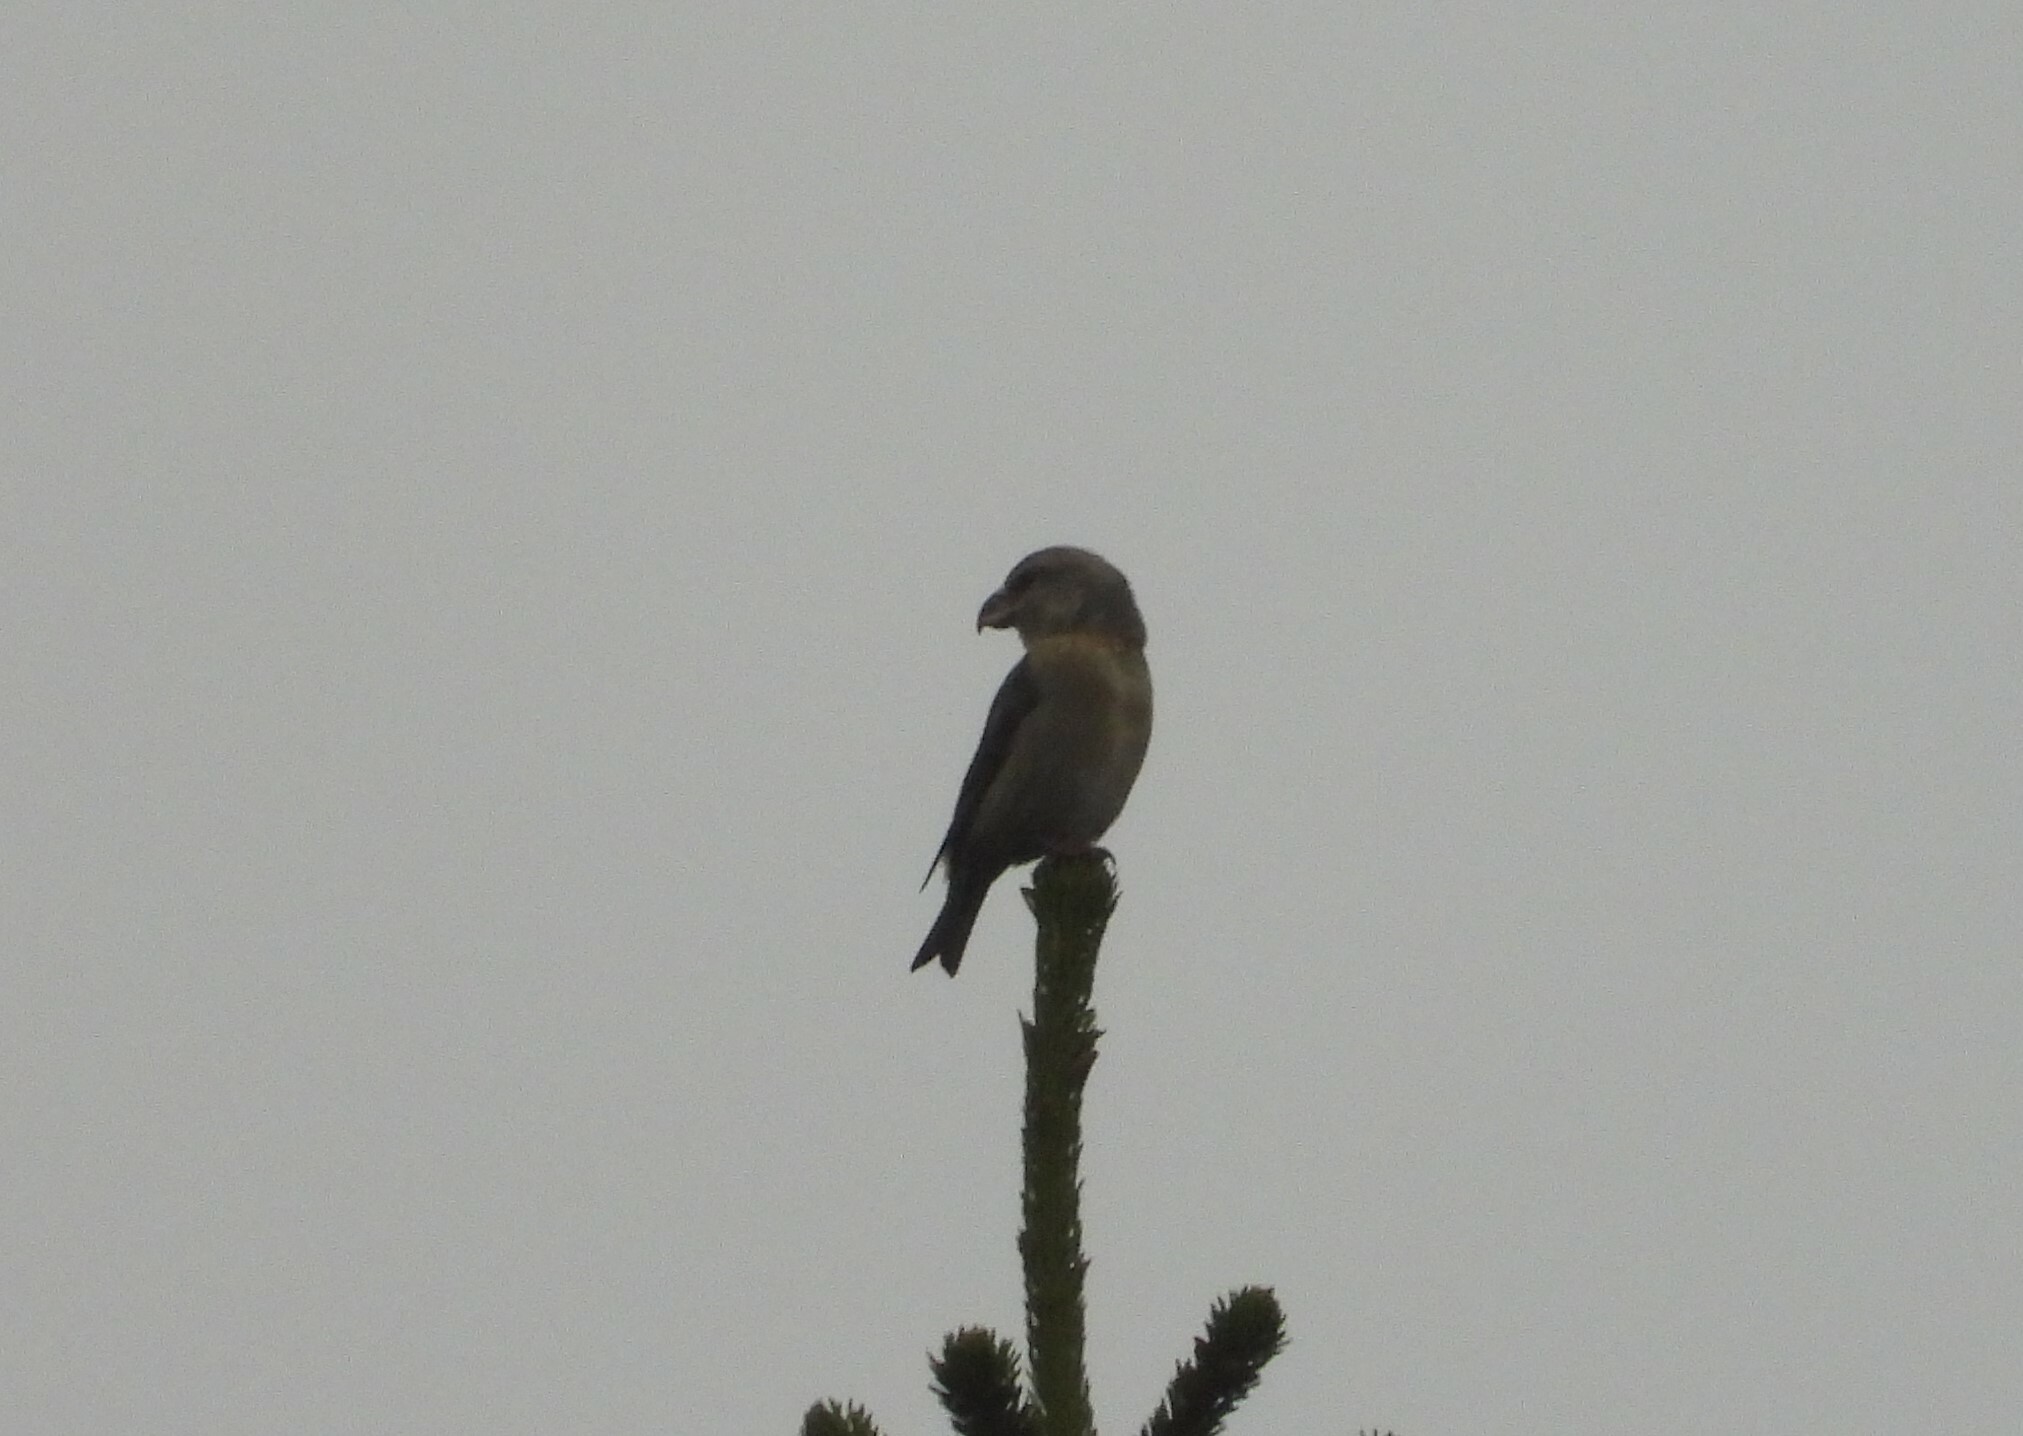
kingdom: Animalia
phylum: Chordata
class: Aves
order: Passeriformes
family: Fringillidae
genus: Loxia
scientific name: Loxia pytyopsittacus
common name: Parrot crossbill
